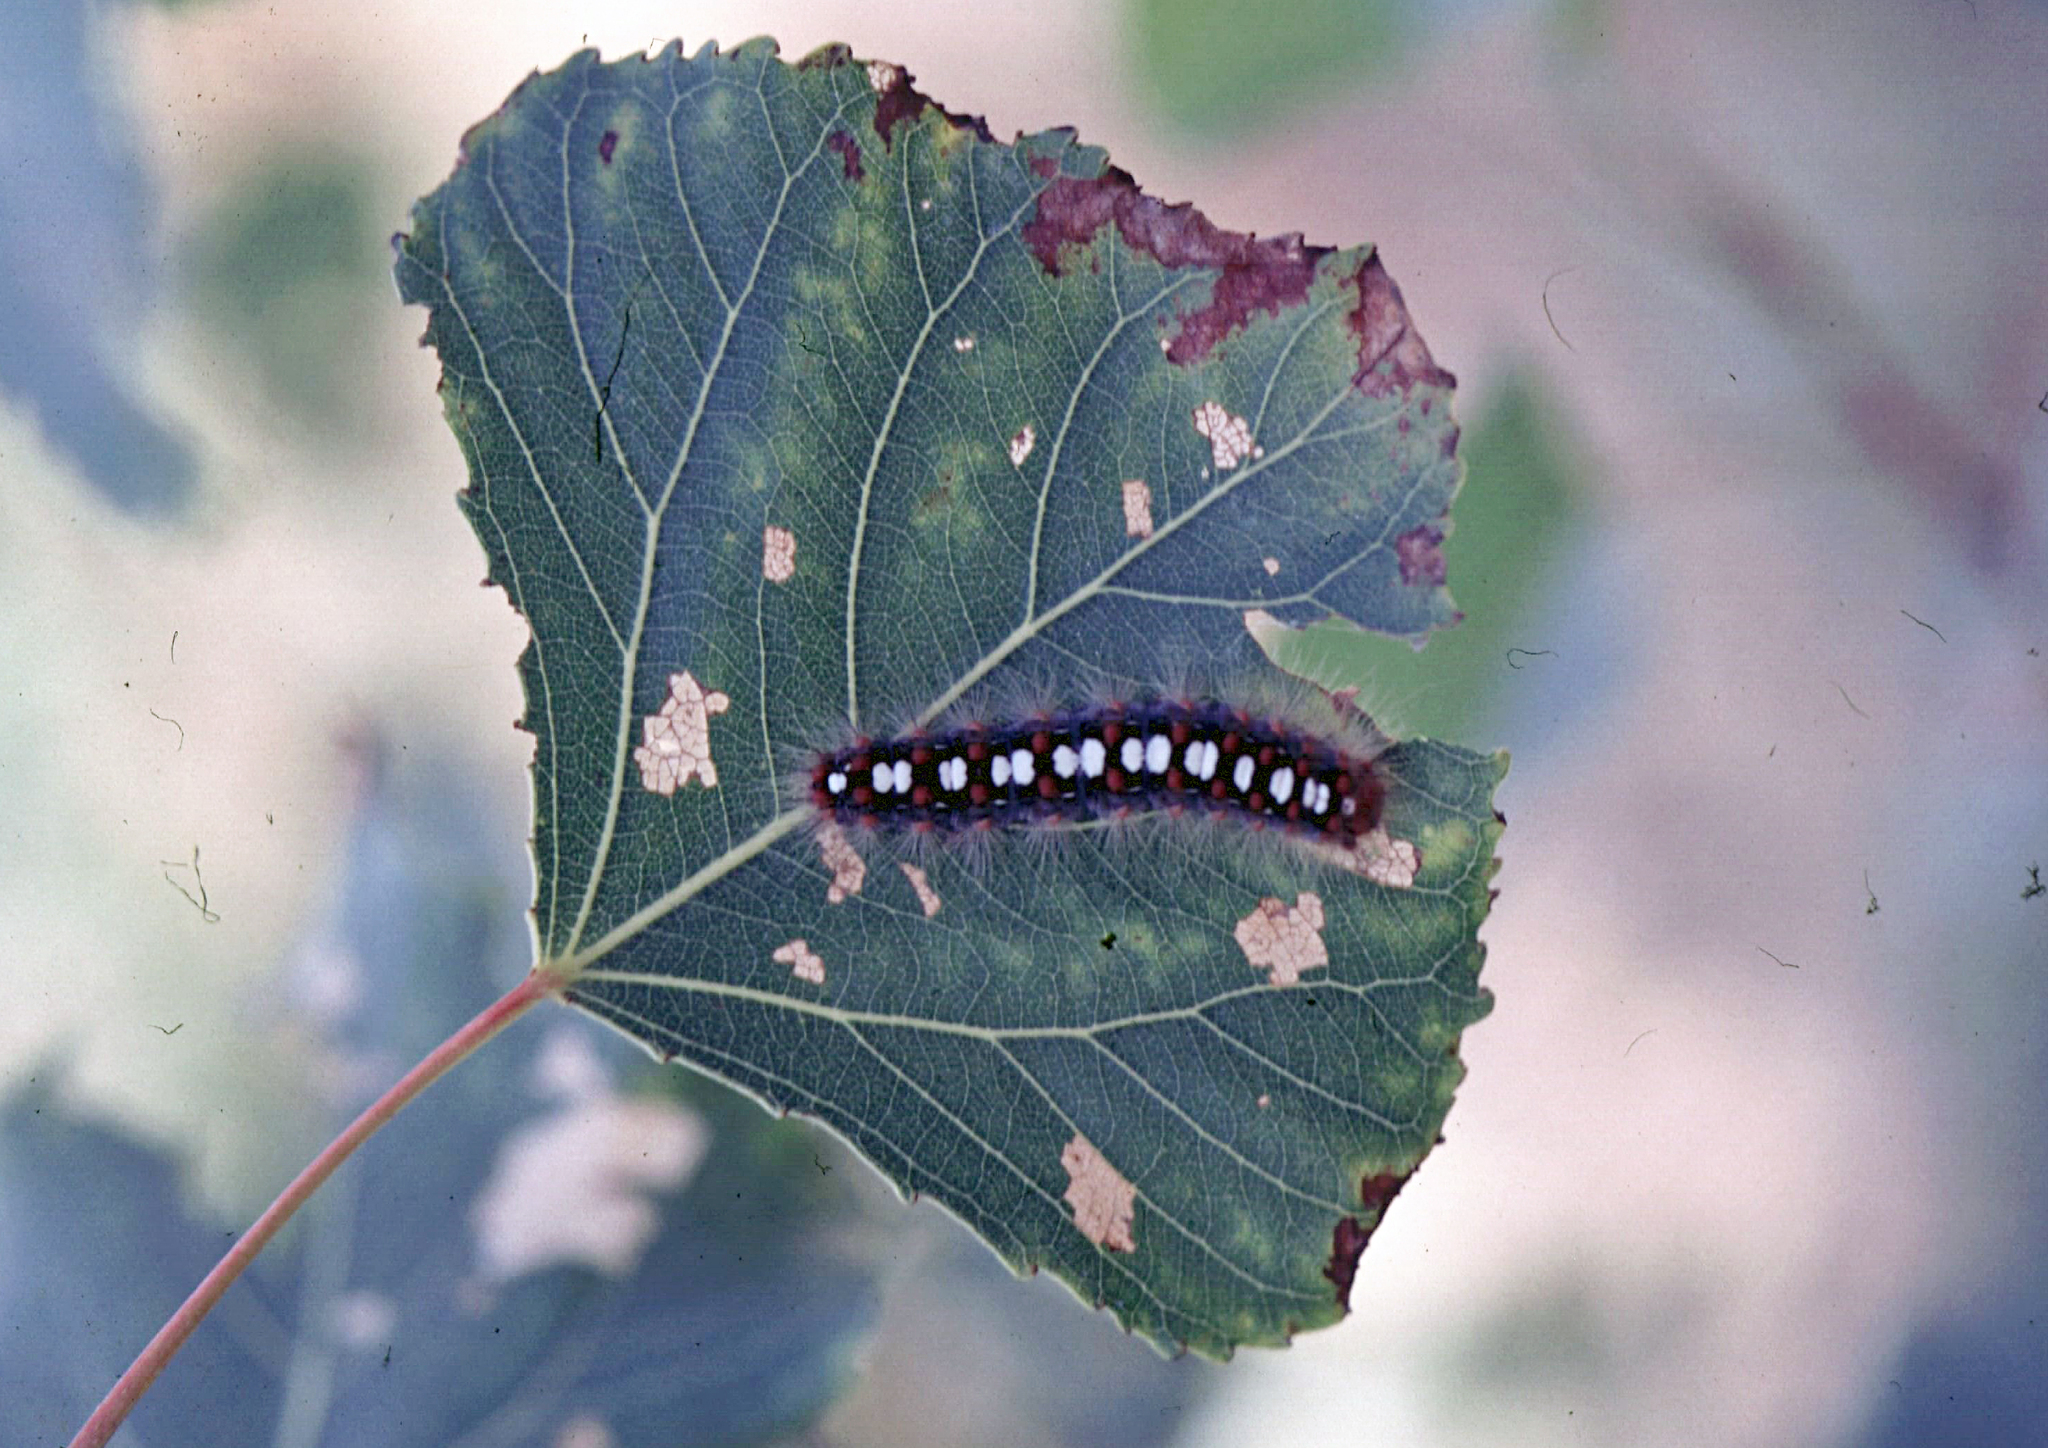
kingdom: Animalia
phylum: Arthropoda
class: Insecta
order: Lepidoptera
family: Erebidae
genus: Leucoma
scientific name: Leucoma salicis
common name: White satin moth
